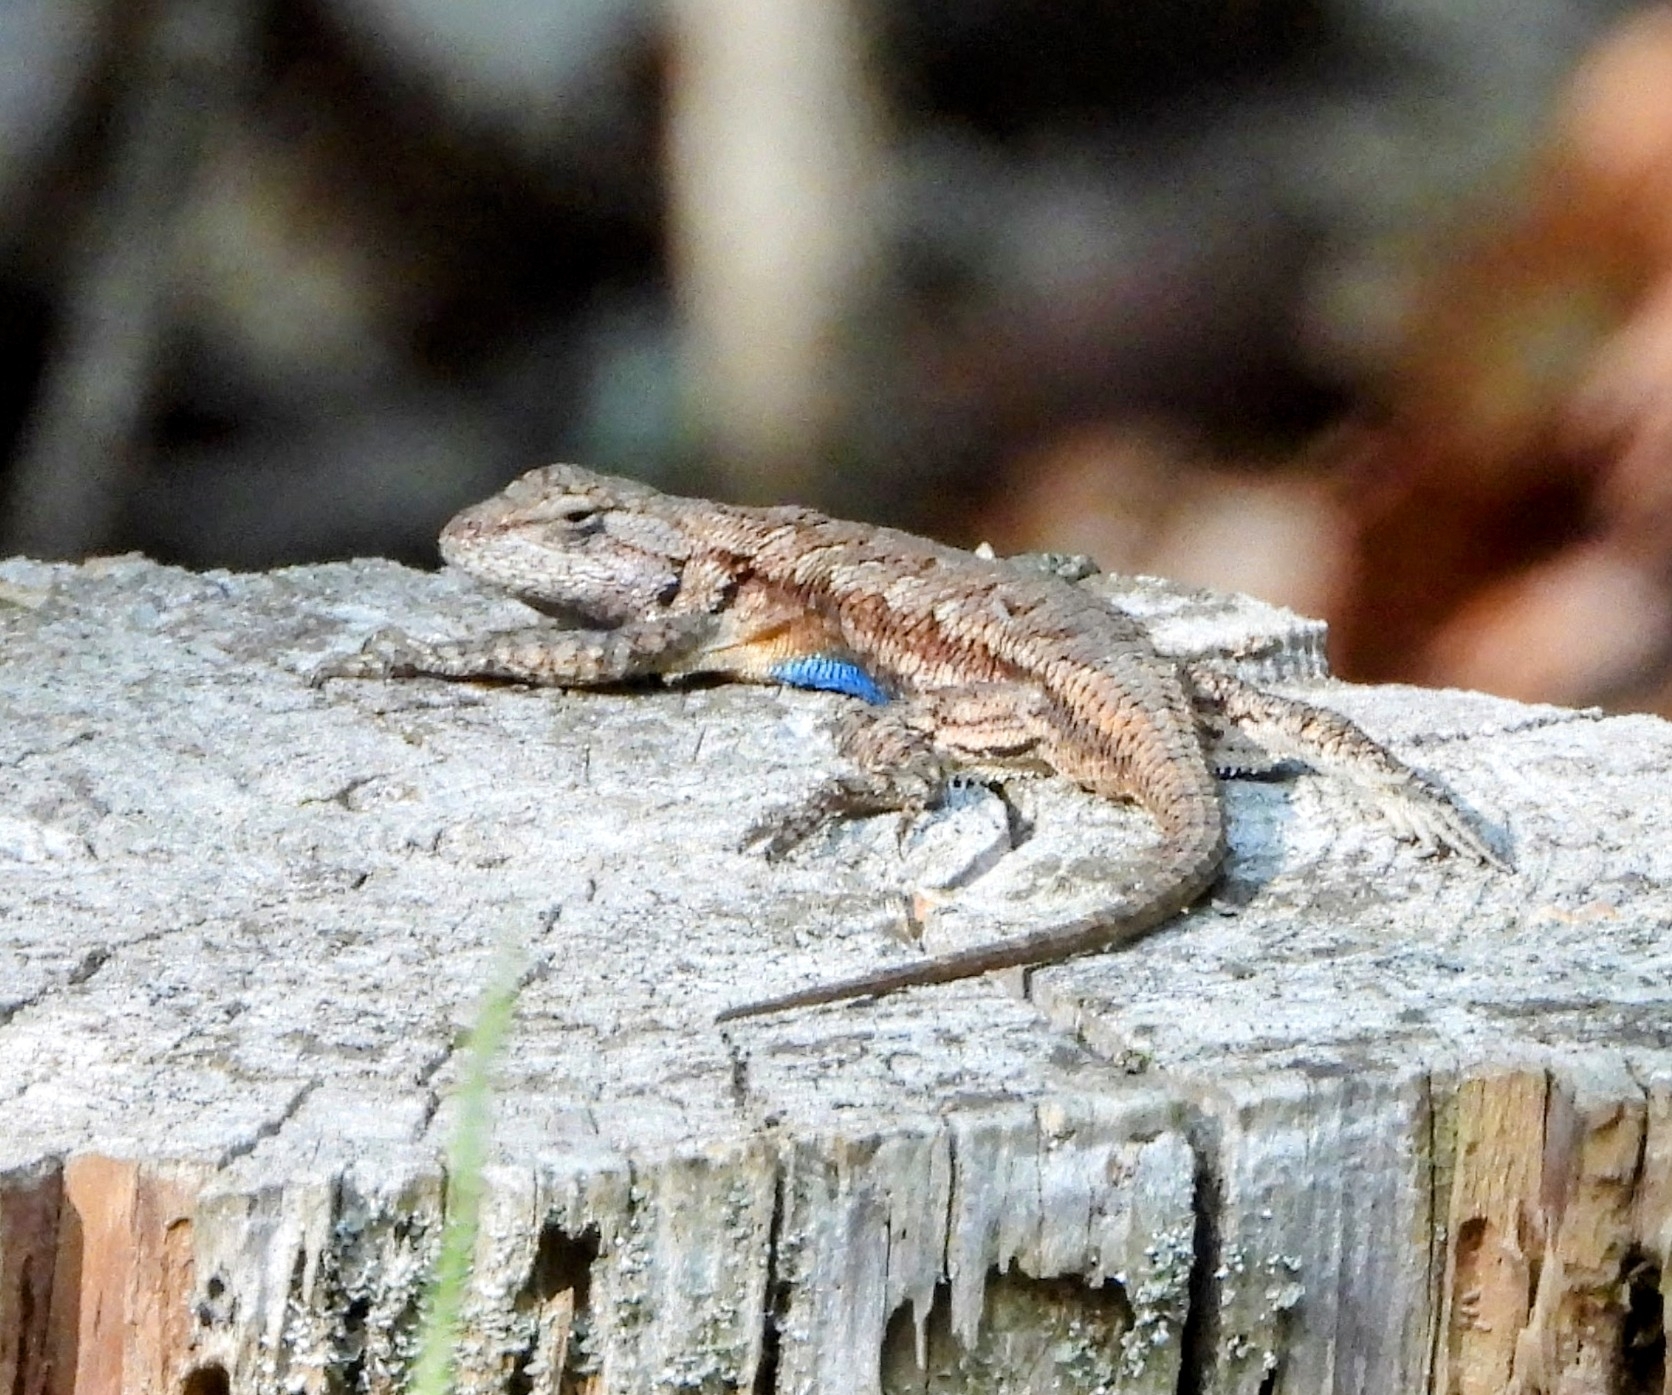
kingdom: Animalia
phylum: Chordata
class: Squamata
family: Phrynosomatidae
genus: Sceloporus
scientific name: Sceloporus consobrinus
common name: Southern prairie lizard
